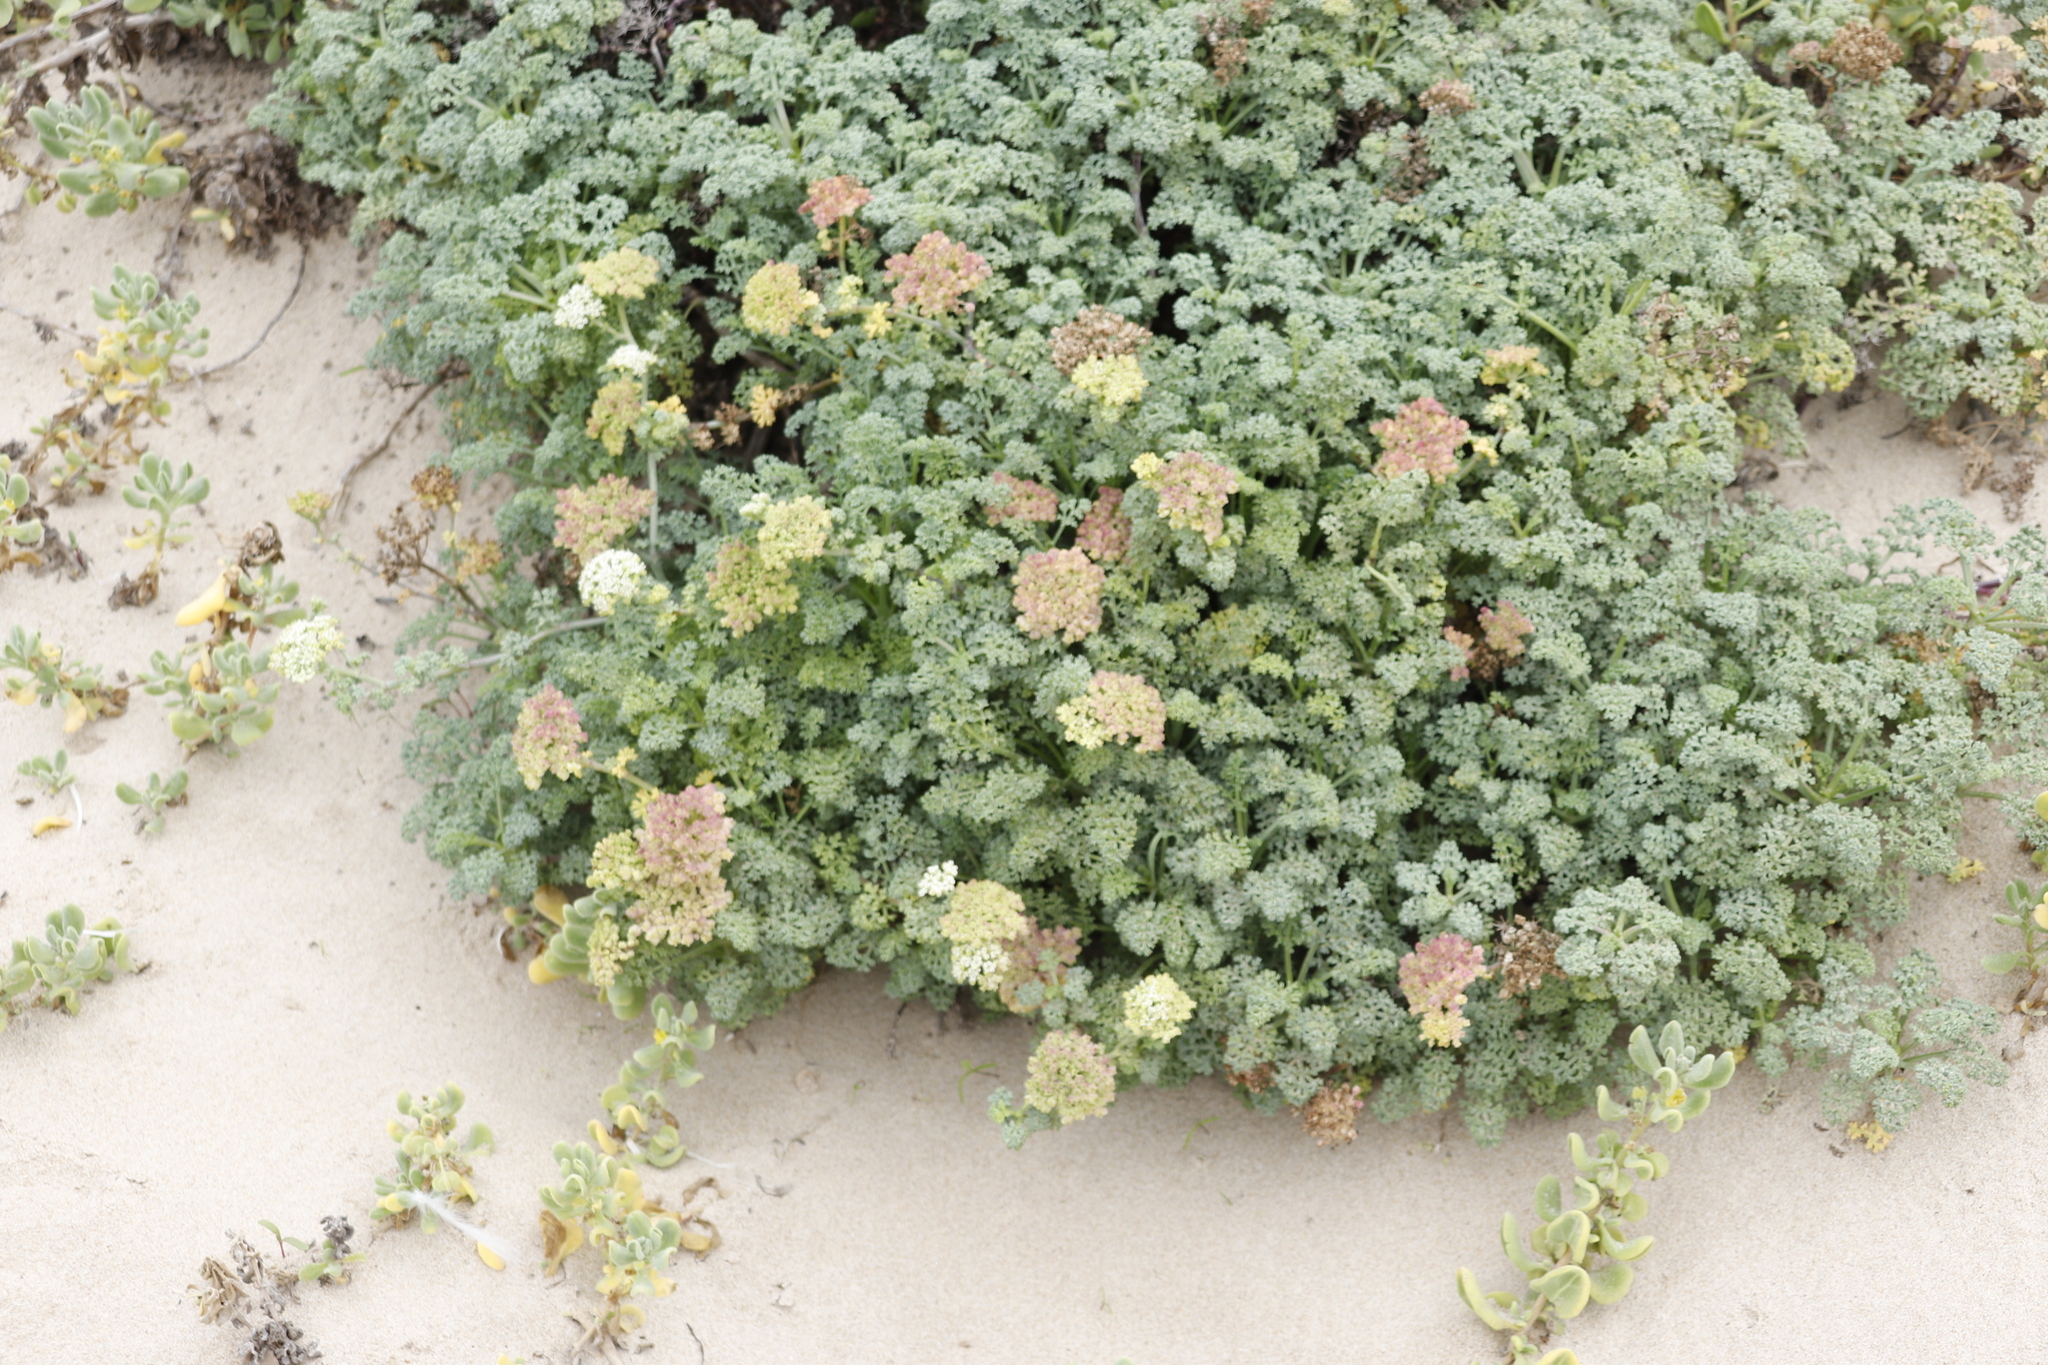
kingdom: Plantae
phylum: Tracheophyta
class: Magnoliopsida
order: Apiales
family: Apiaceae
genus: Dasispermum
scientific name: Dasispermum suffruticosum
